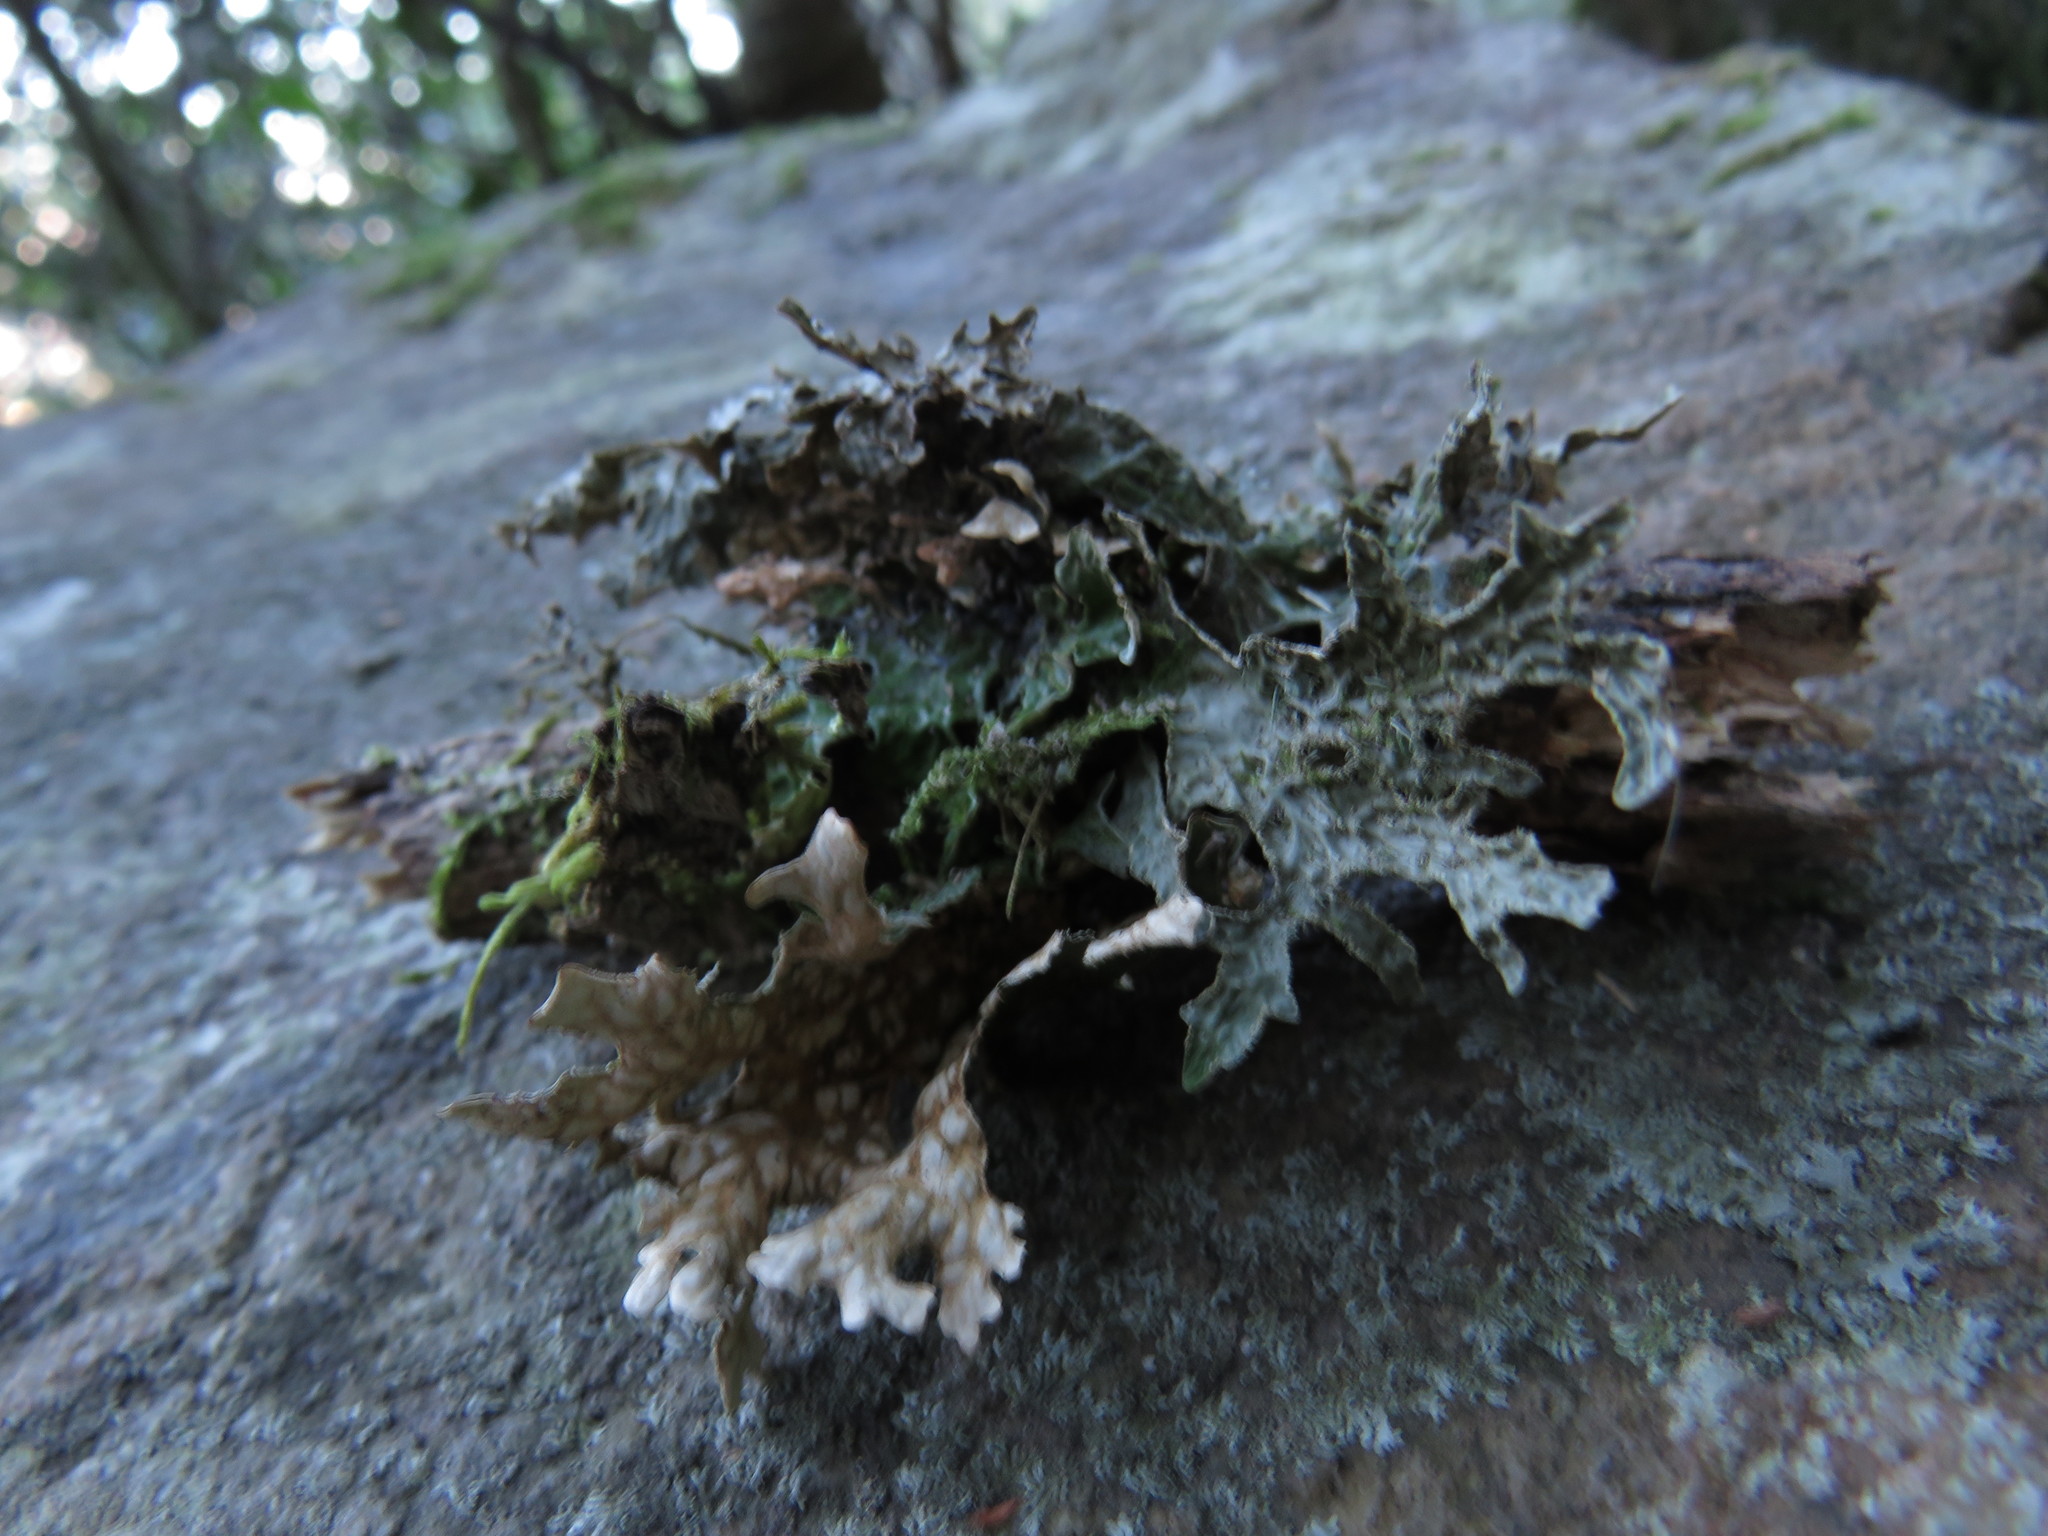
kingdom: Fungi
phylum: Ascomycota
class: Lecanoromycetes
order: Peltigerales
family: Lobariaceae
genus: Lobaria
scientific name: Lobaria pulmonaria
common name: Lungwort
